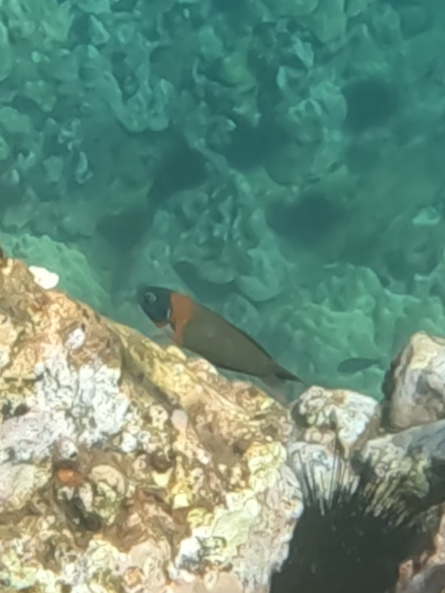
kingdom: Animalia
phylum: Chordata
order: Perciformes
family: Labridae
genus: Thalassoma
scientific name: Thalassoma duperrey
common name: Saddle wrasse
